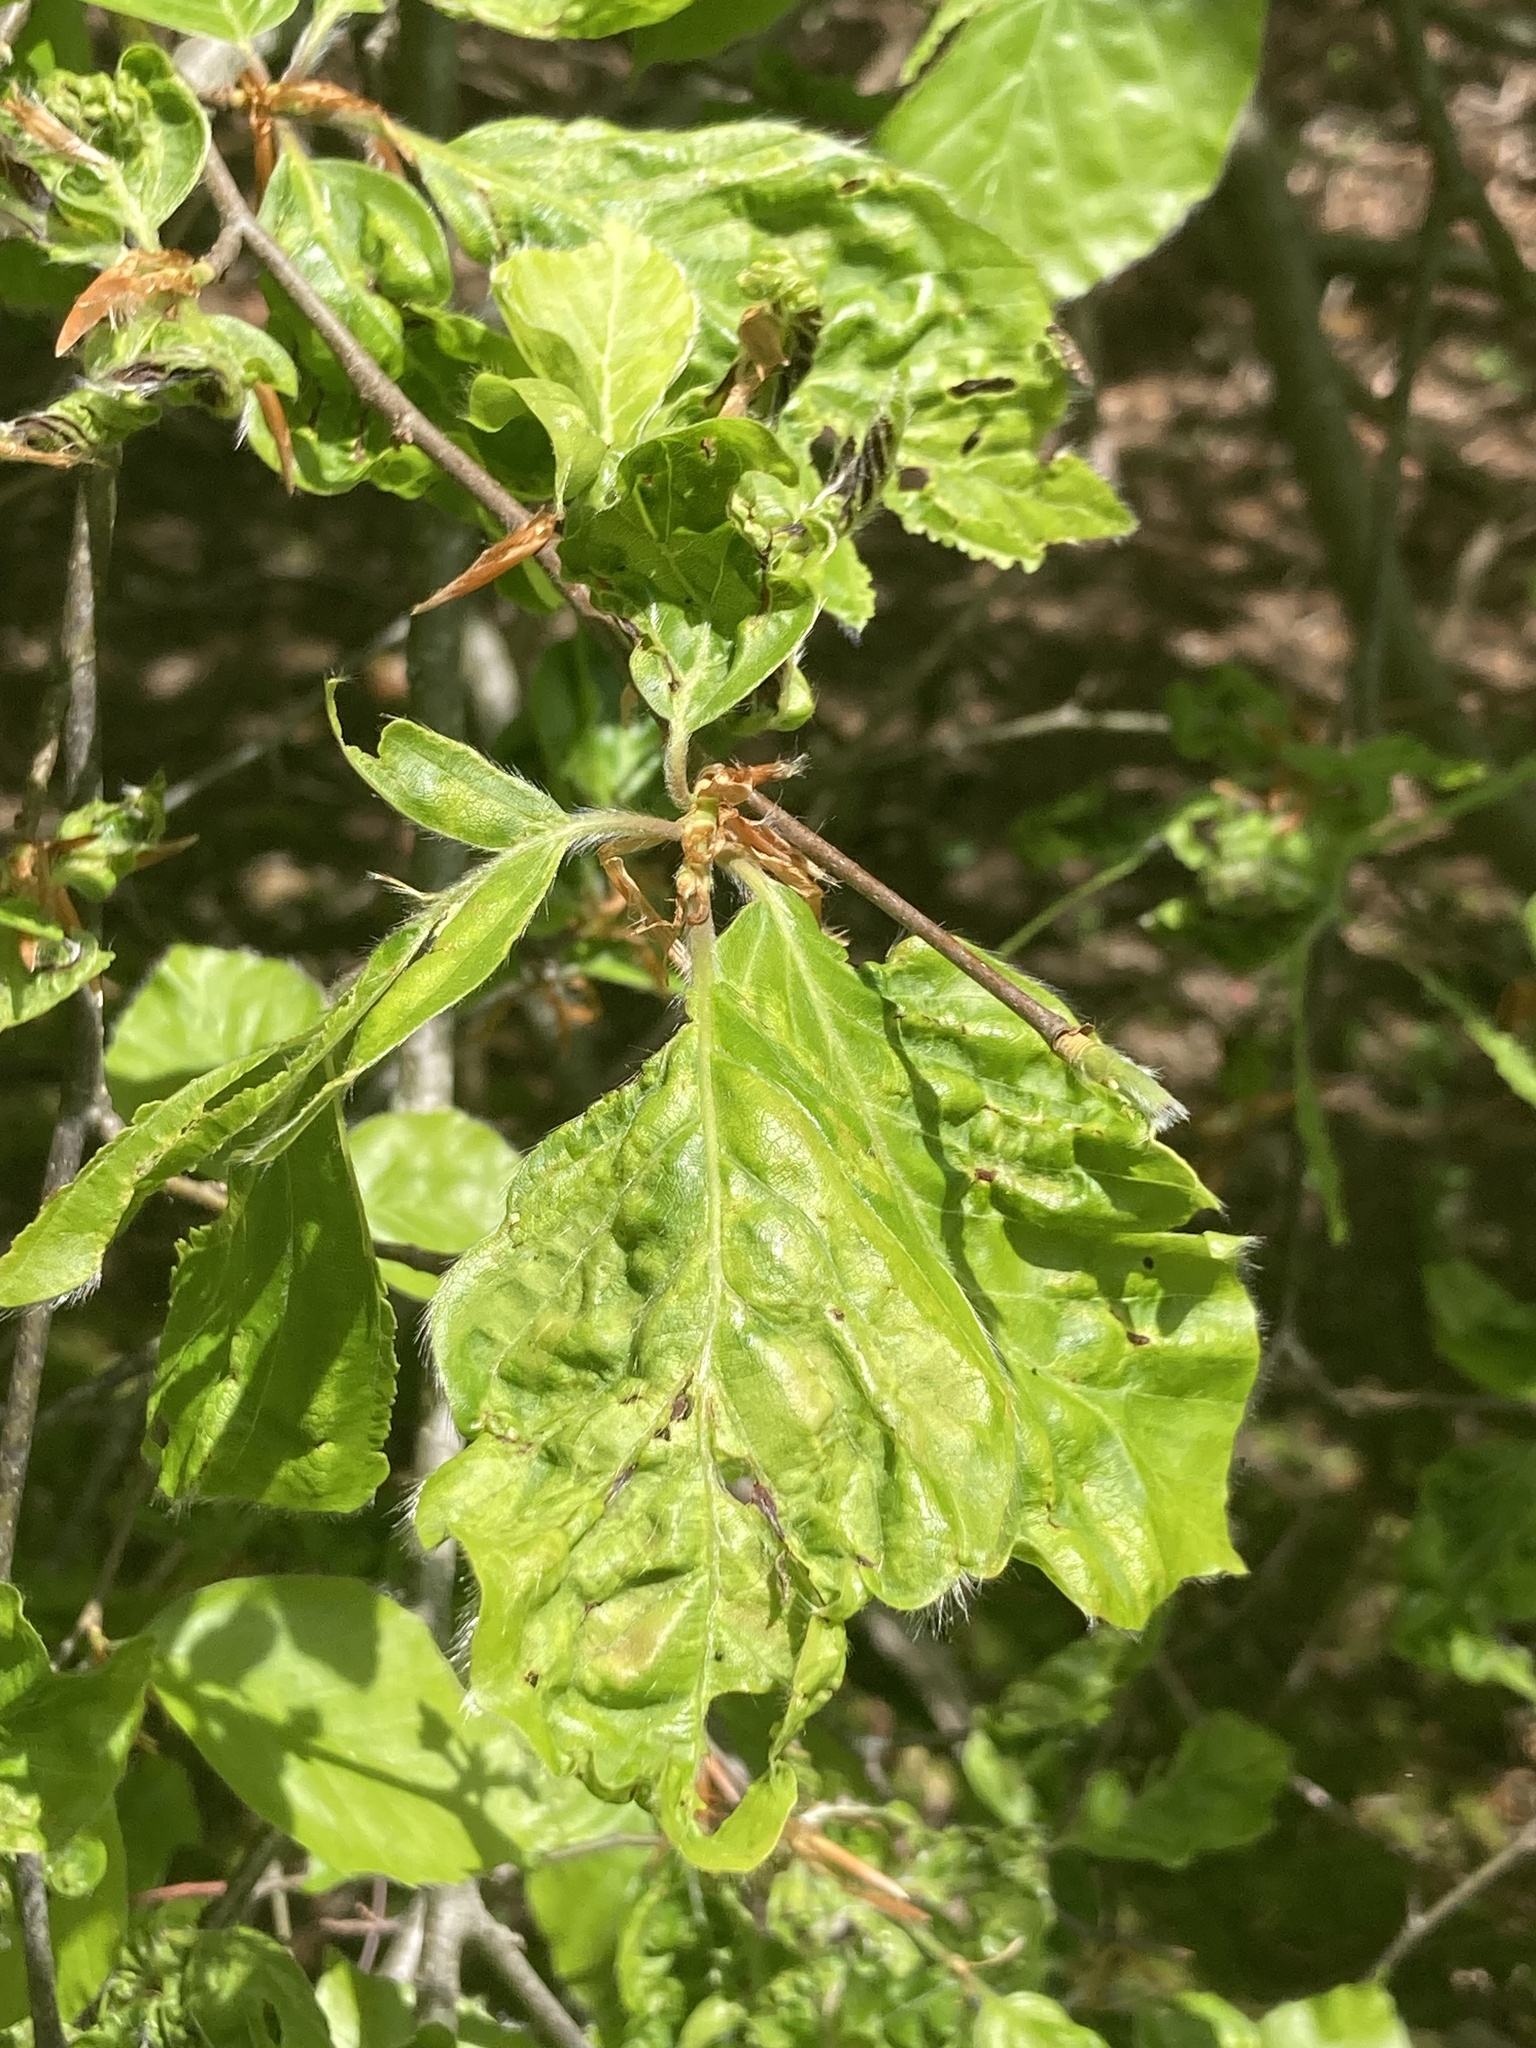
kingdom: Animalia
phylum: Nematoda
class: Chromadorea
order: Rhabditida
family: Anguinidae
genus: Litylenchus
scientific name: Litylenchus crenatae
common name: Beech leaf disease
